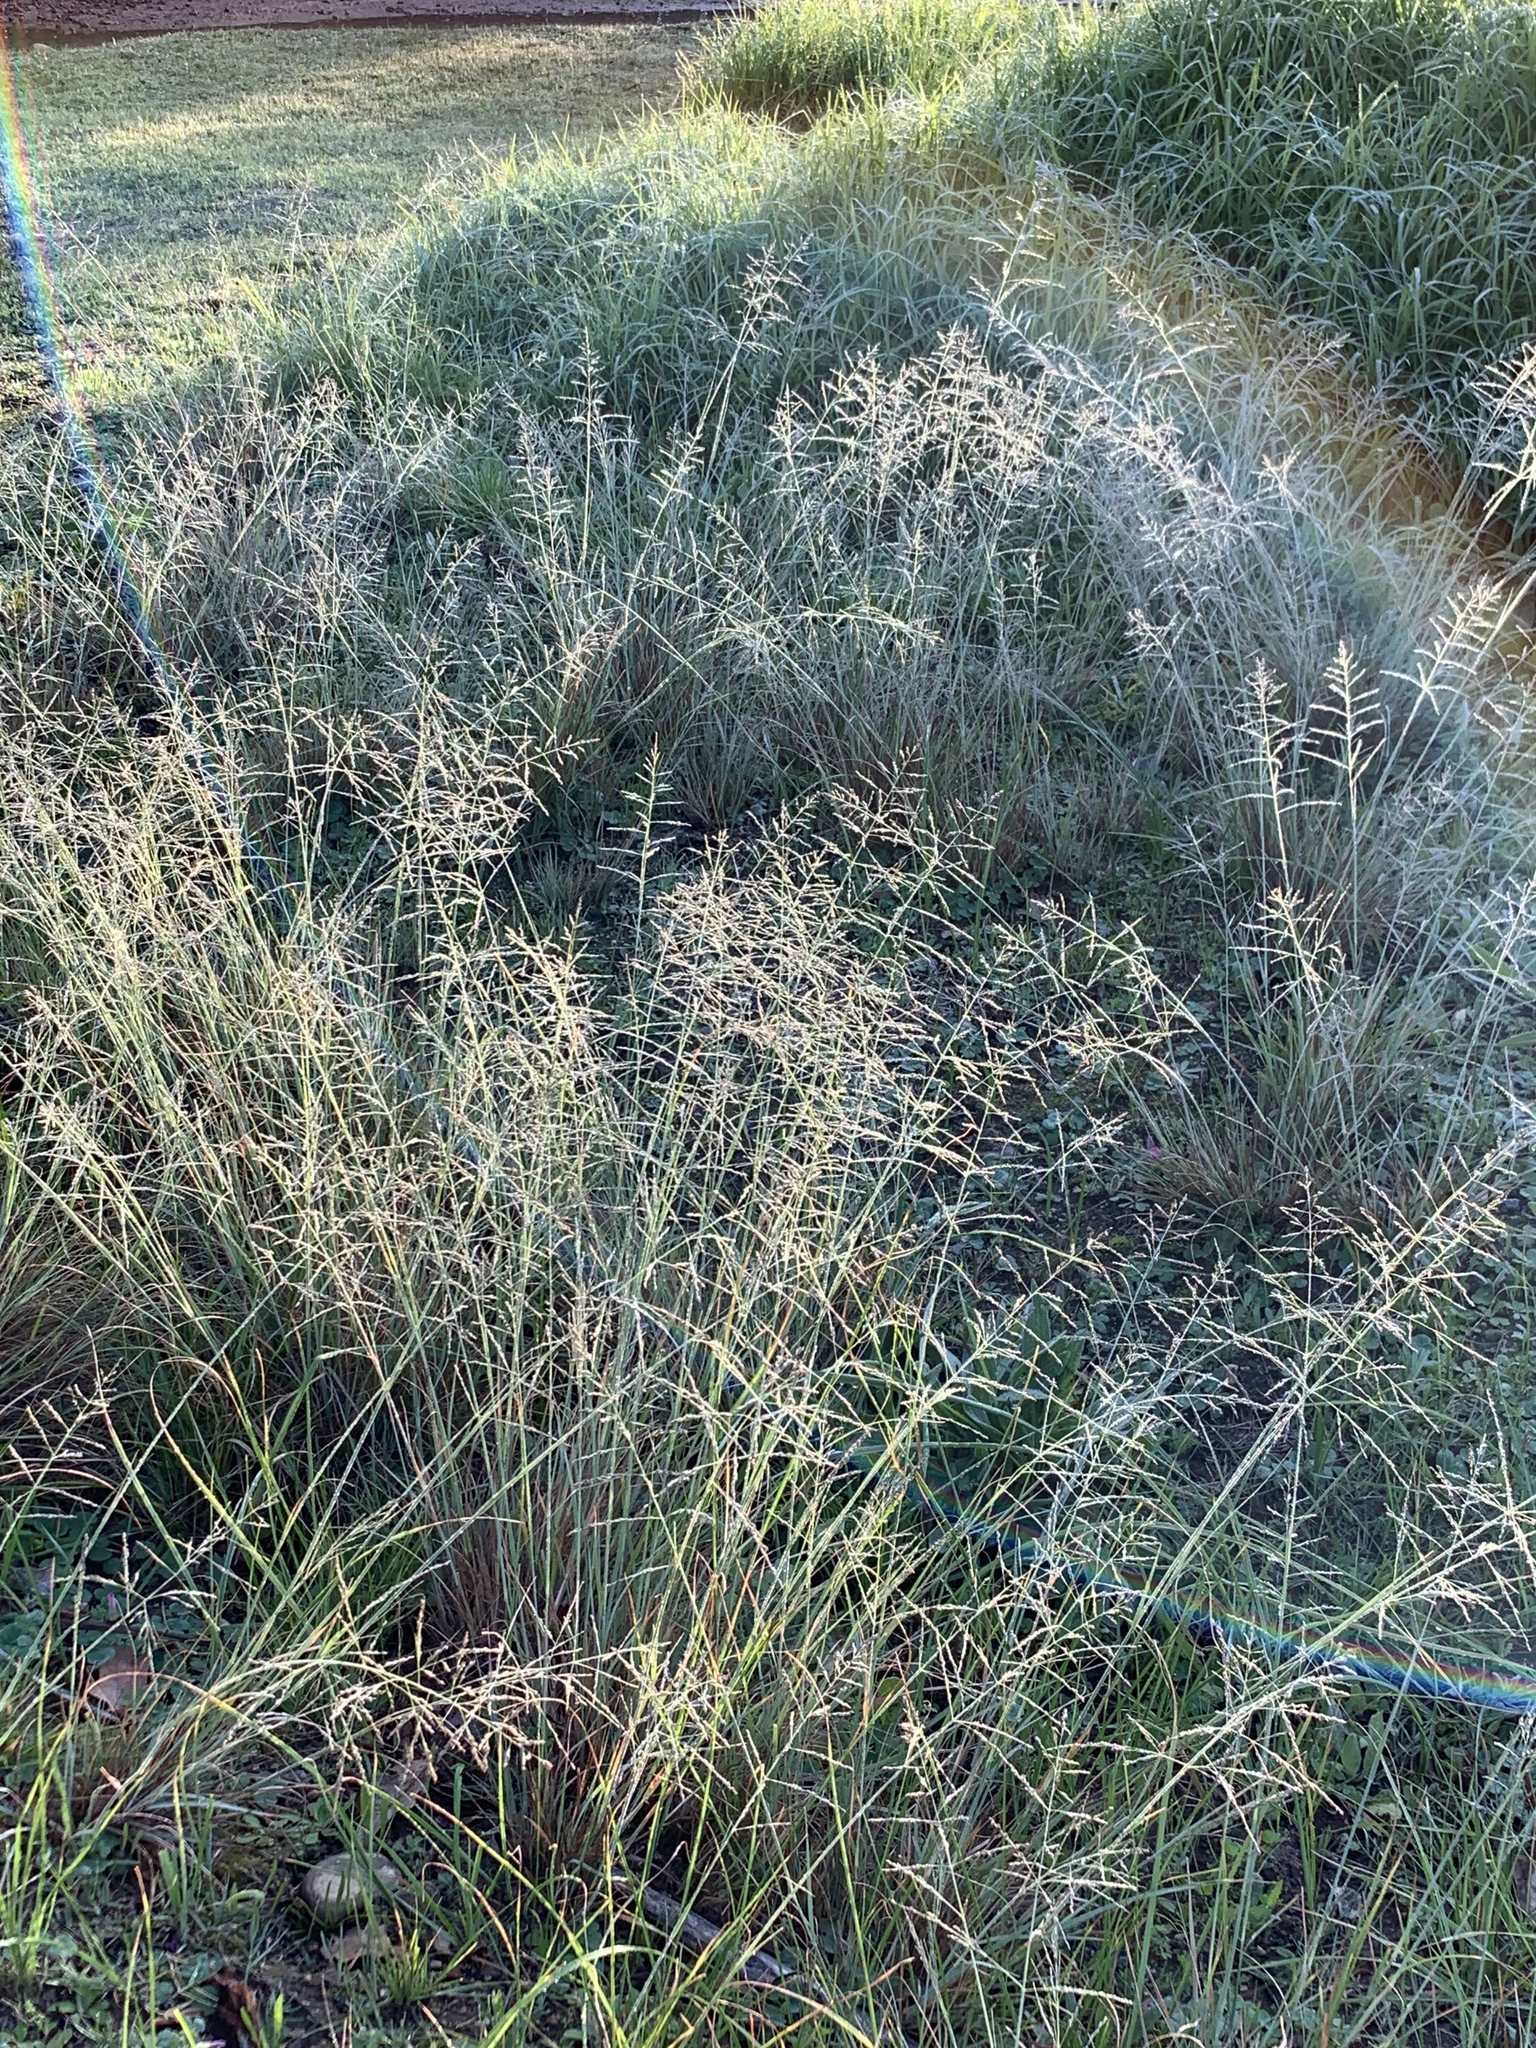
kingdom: Plantae
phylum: Tracheophyta
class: Liliopsida
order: Poales
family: Poaceae
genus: Eragrostis
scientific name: Eragrostis curvula
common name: African love-grass
